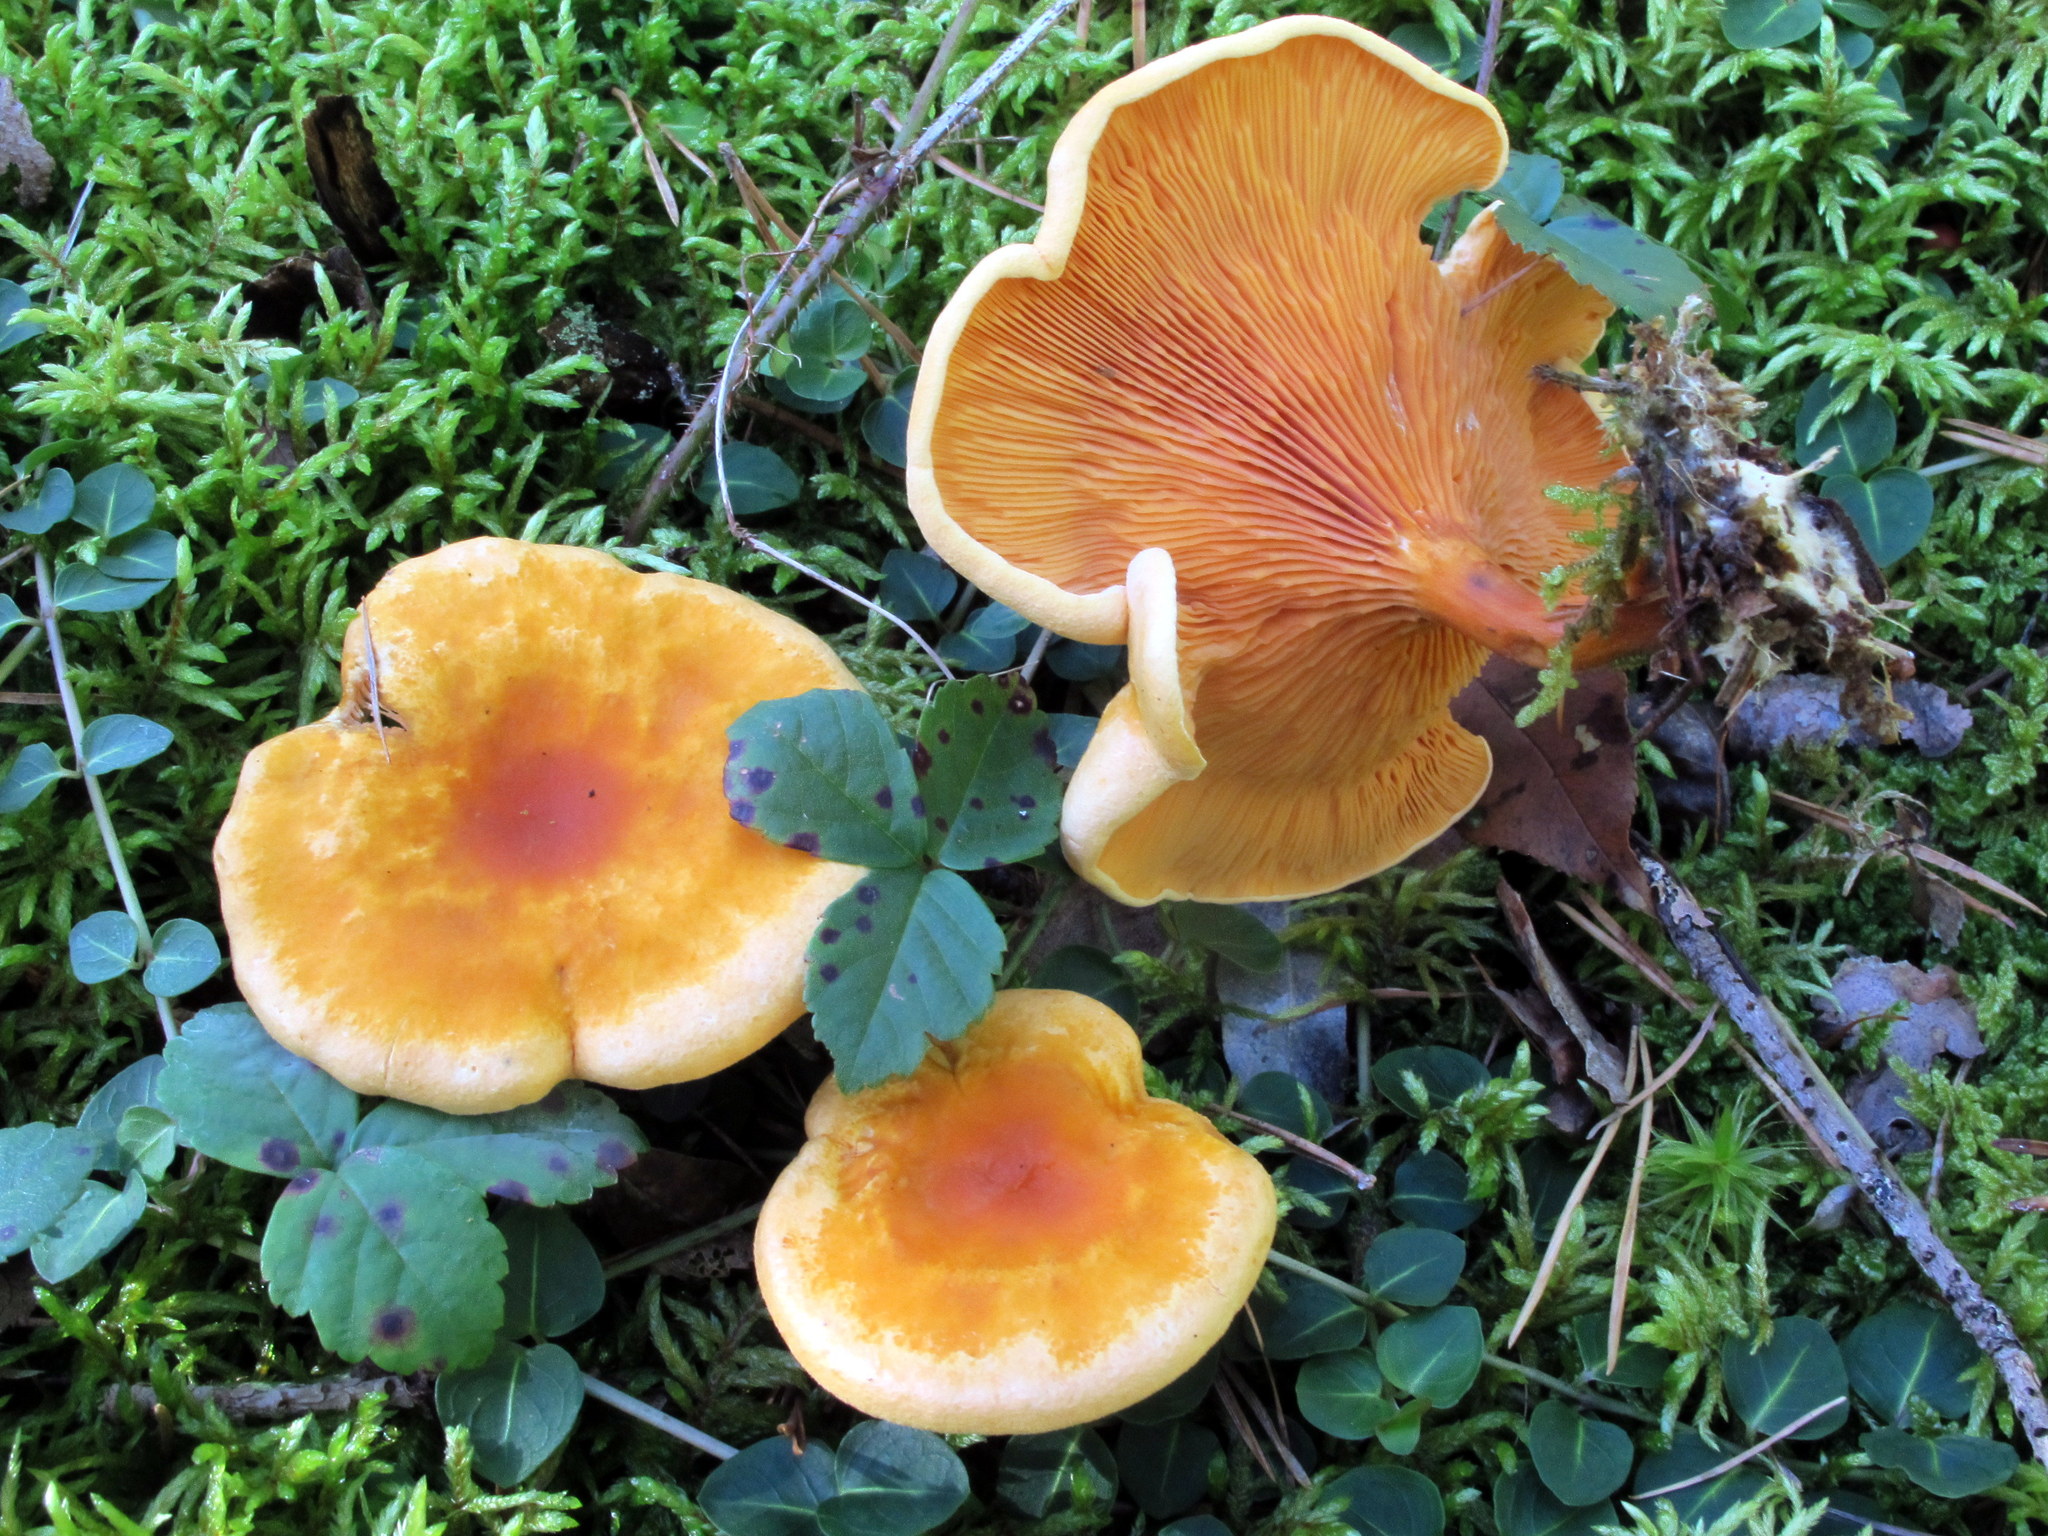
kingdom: Fungi
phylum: Basidiomycota
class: Agaricomycetes
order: Boletales
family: Hygrophoropsidaceae
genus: Hygrophoropsis
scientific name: Hygrophoropsis aurantiaca
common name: False chanterelle
